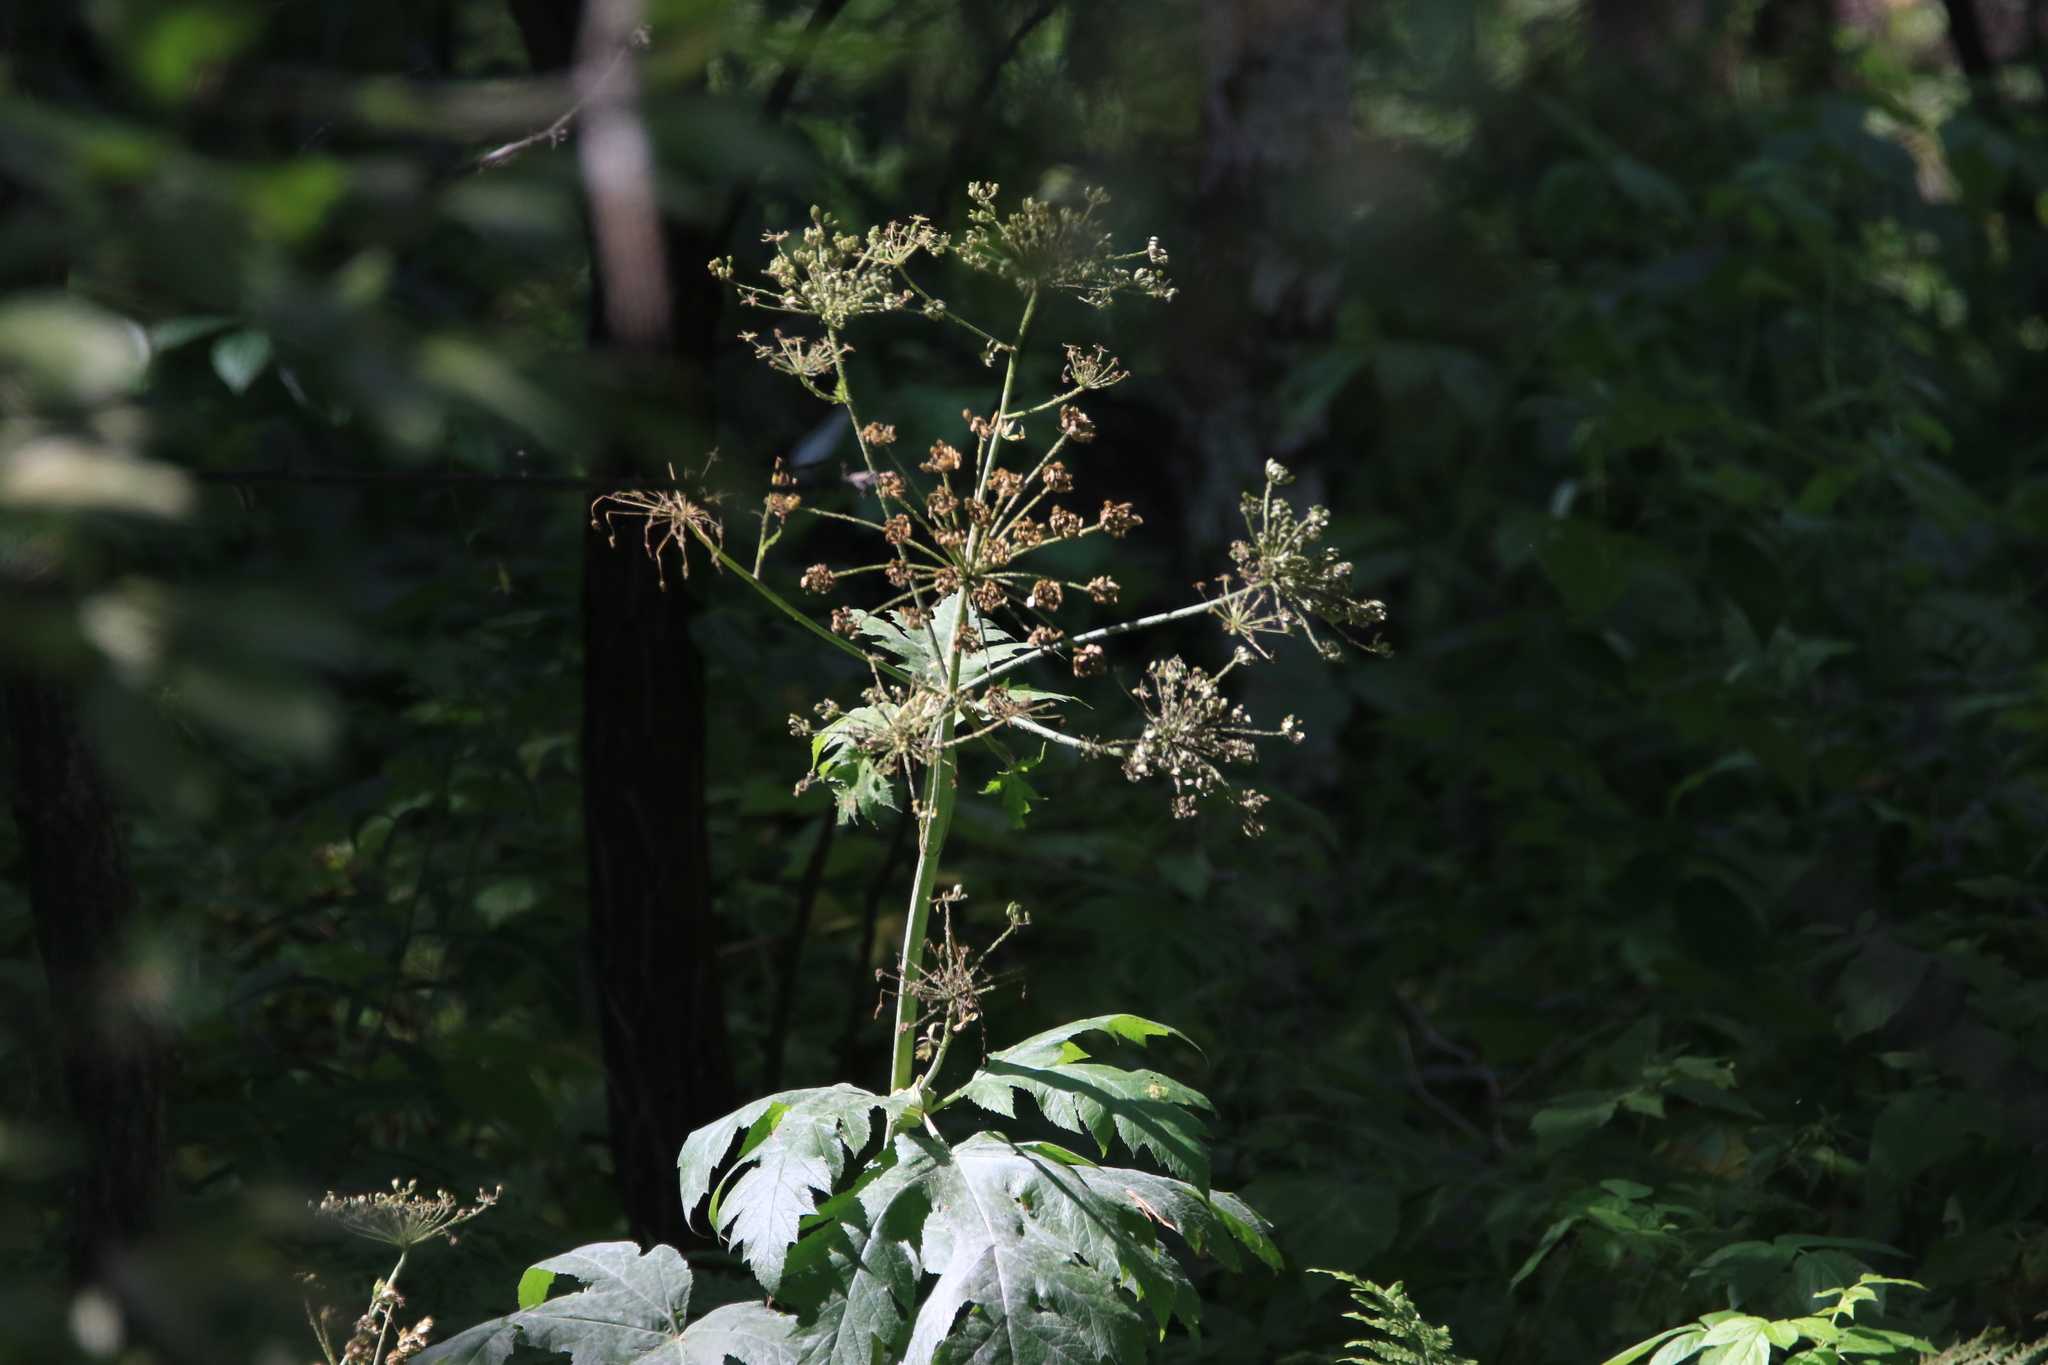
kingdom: Plantae
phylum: Tracheophyta
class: Magnoliopsida
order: Apiales
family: Apiaceae
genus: Heracleum
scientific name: Heracleum dissectum
